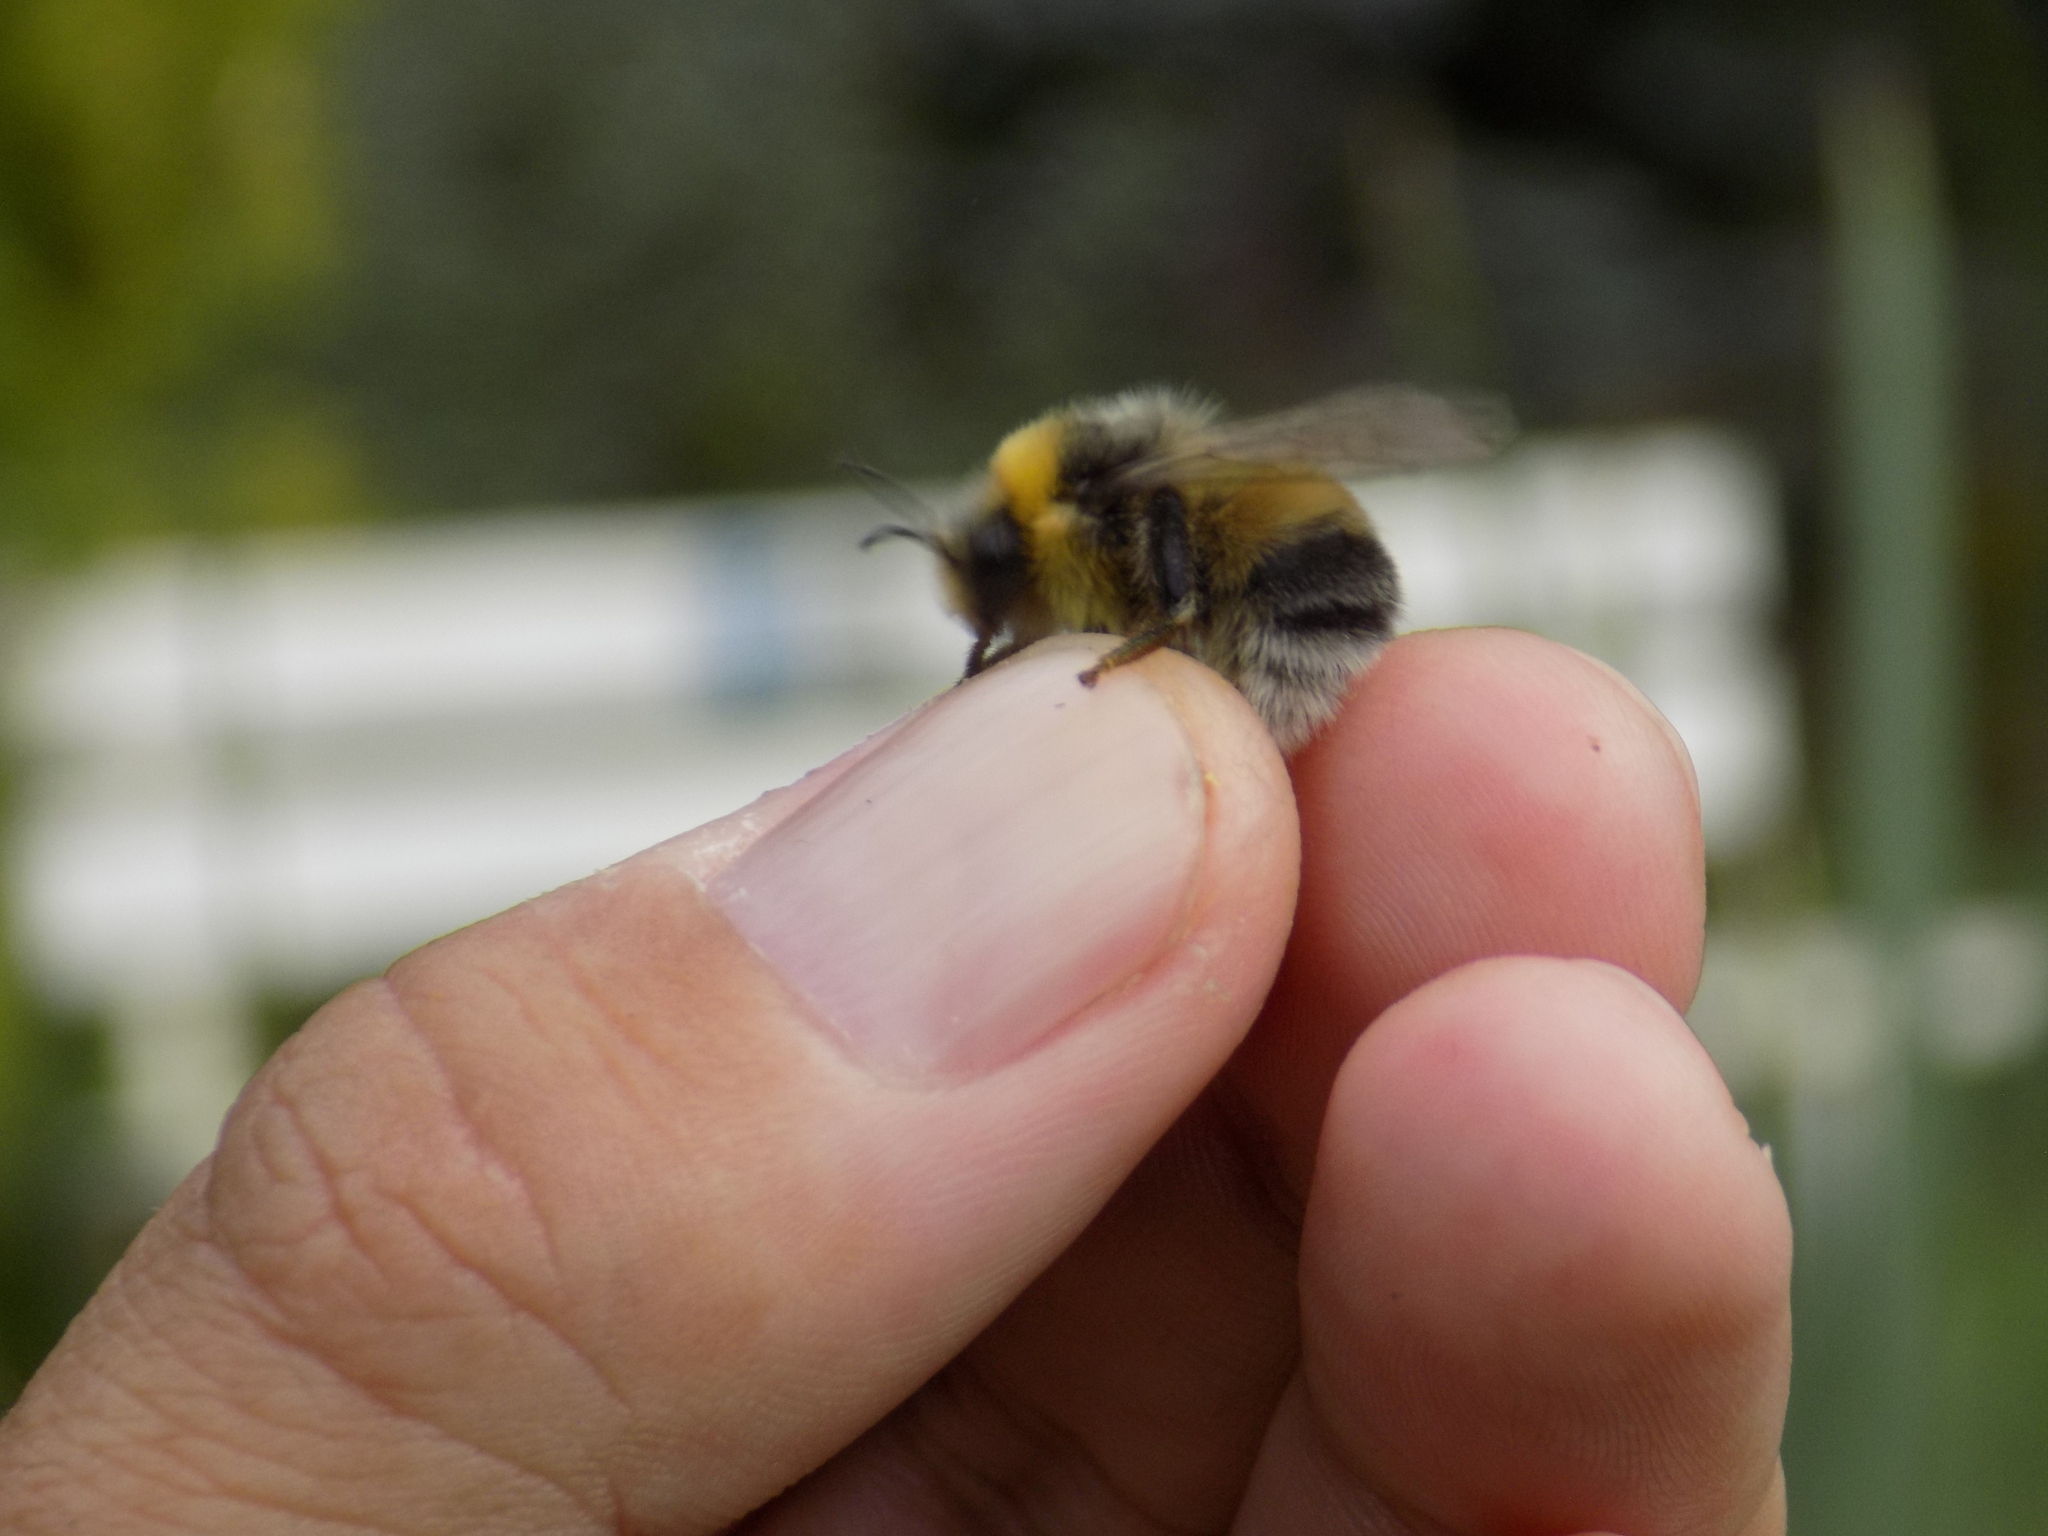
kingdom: Animalia
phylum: Arthropoda
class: Insecta
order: Hymenoptera
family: Apidae
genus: Bombus
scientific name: Bombus lucorum
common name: White-tailed bumblebee
